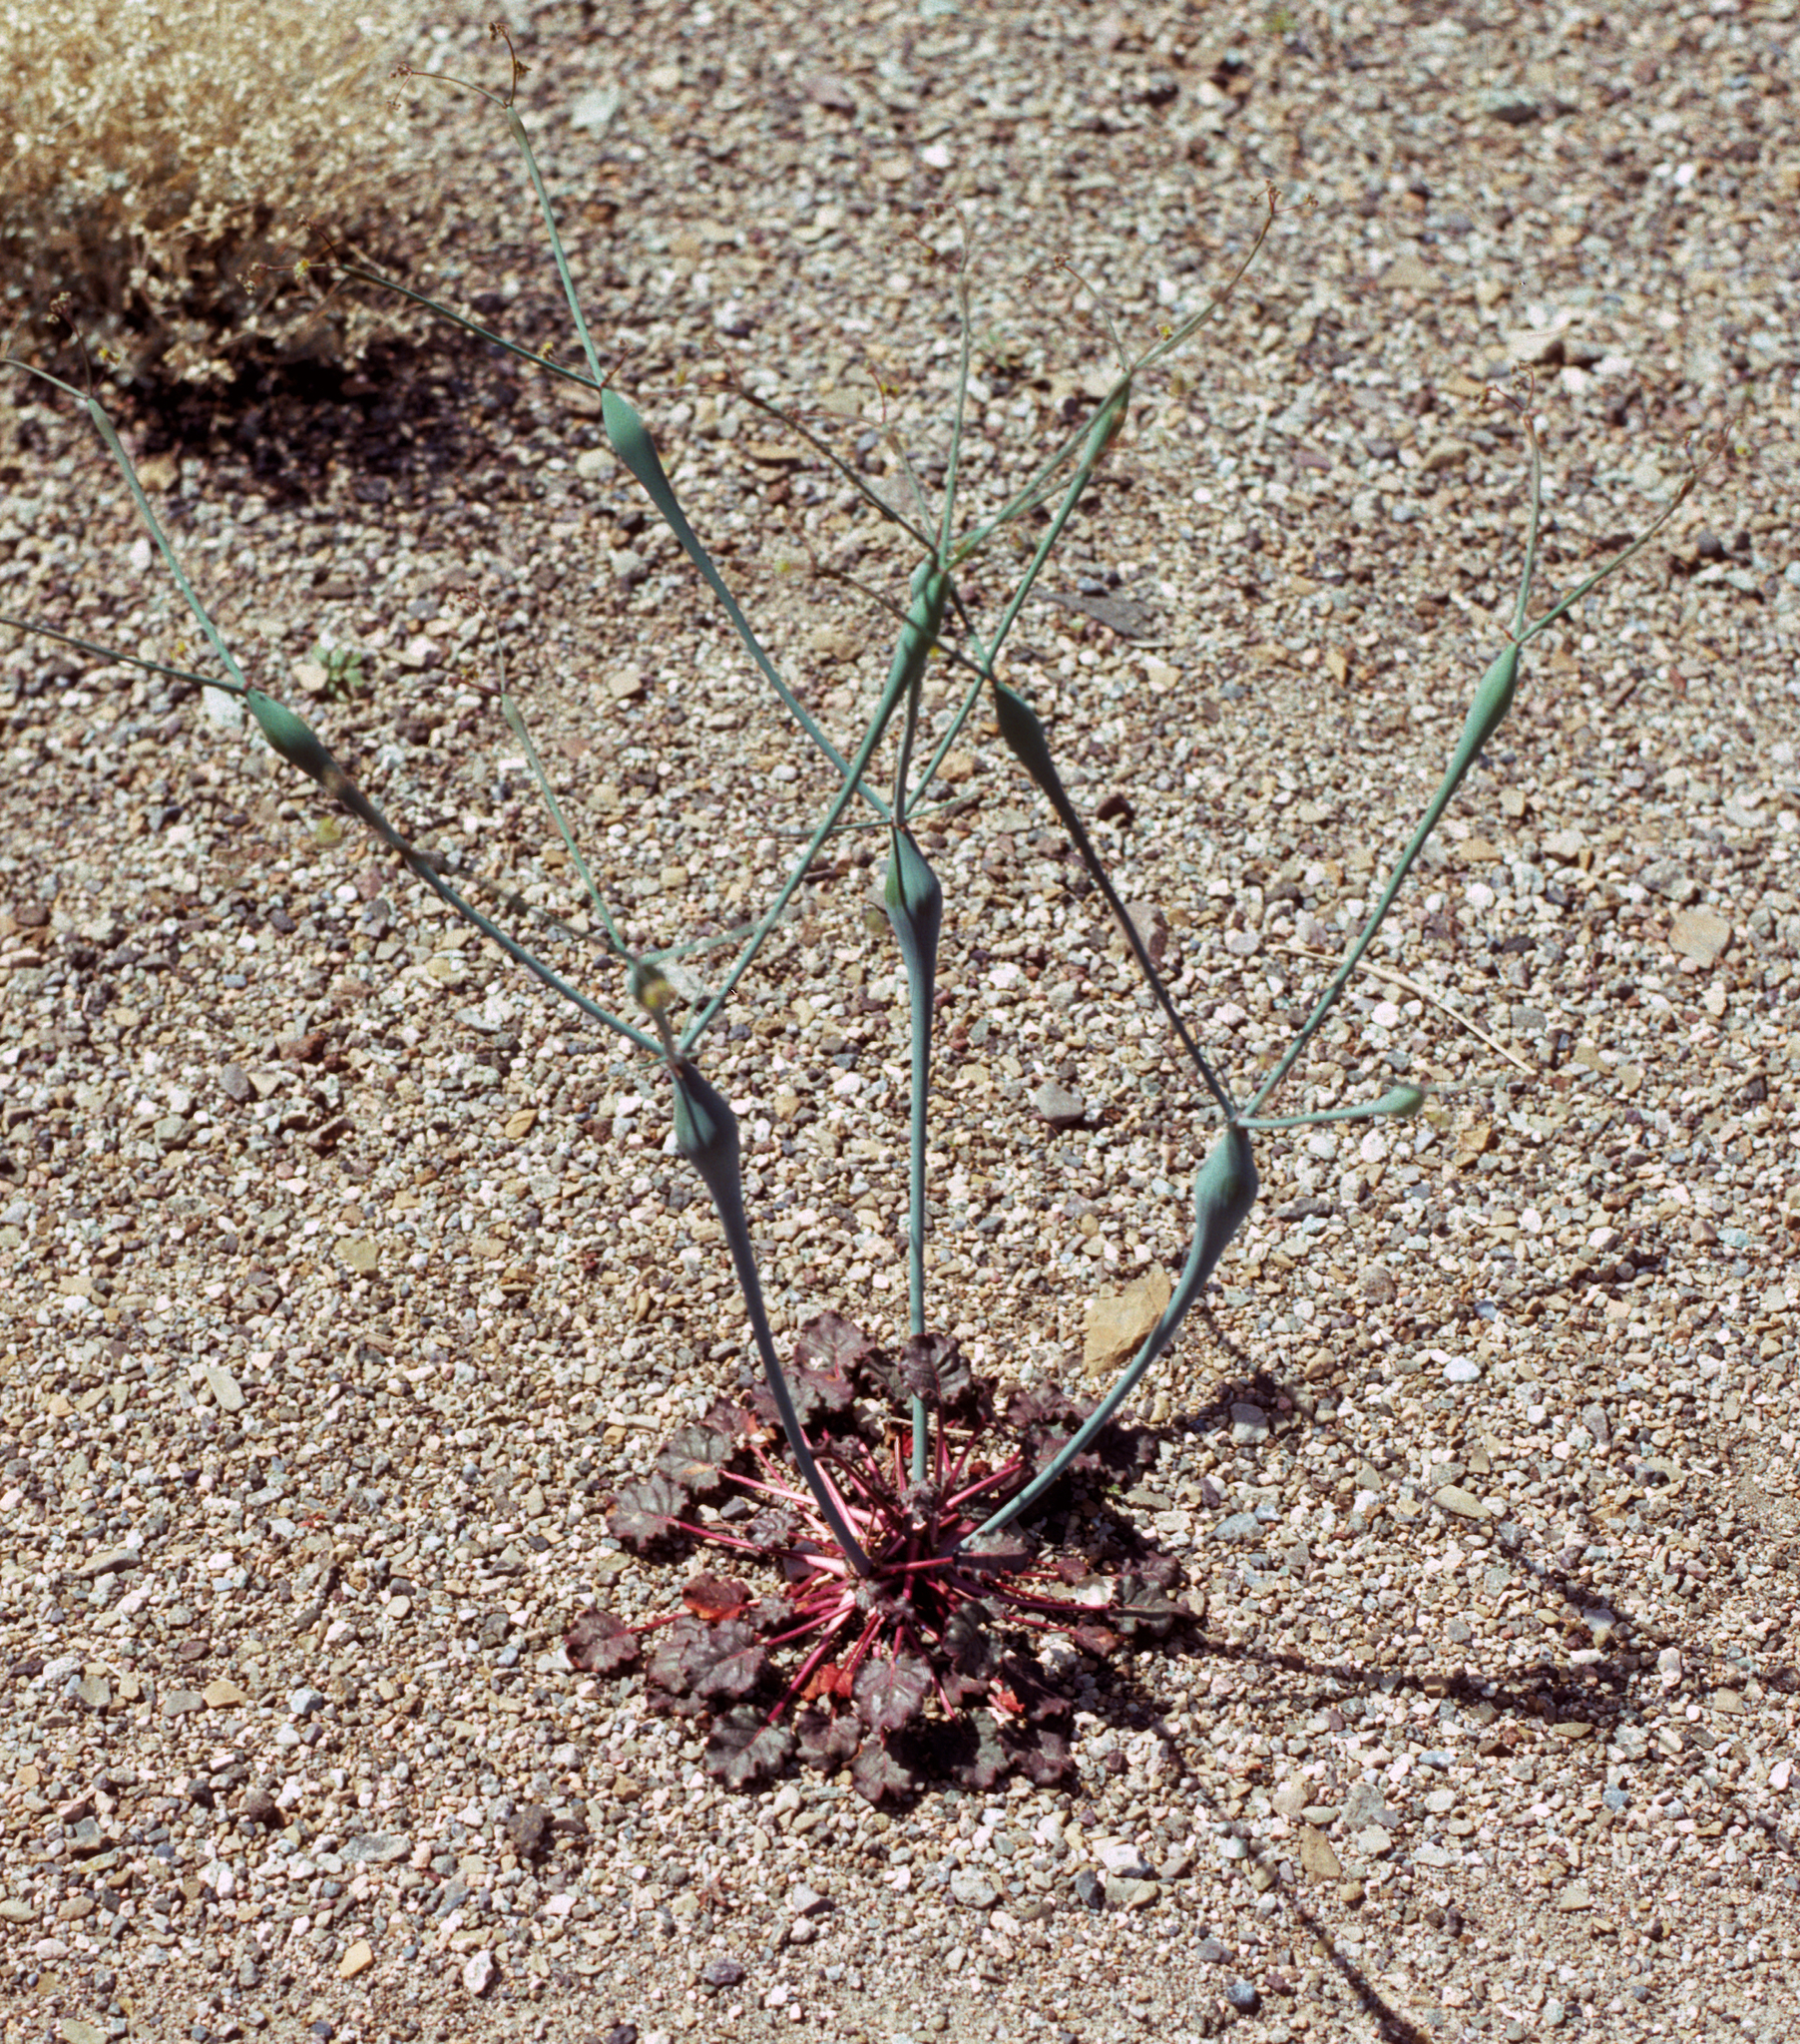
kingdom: Plantae
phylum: Tracheophyta
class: Magnoliopsida
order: Caryophyllales
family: Polygonaceae
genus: Eriogonum
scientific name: Eriogonum inflatum
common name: Desert trumpet
